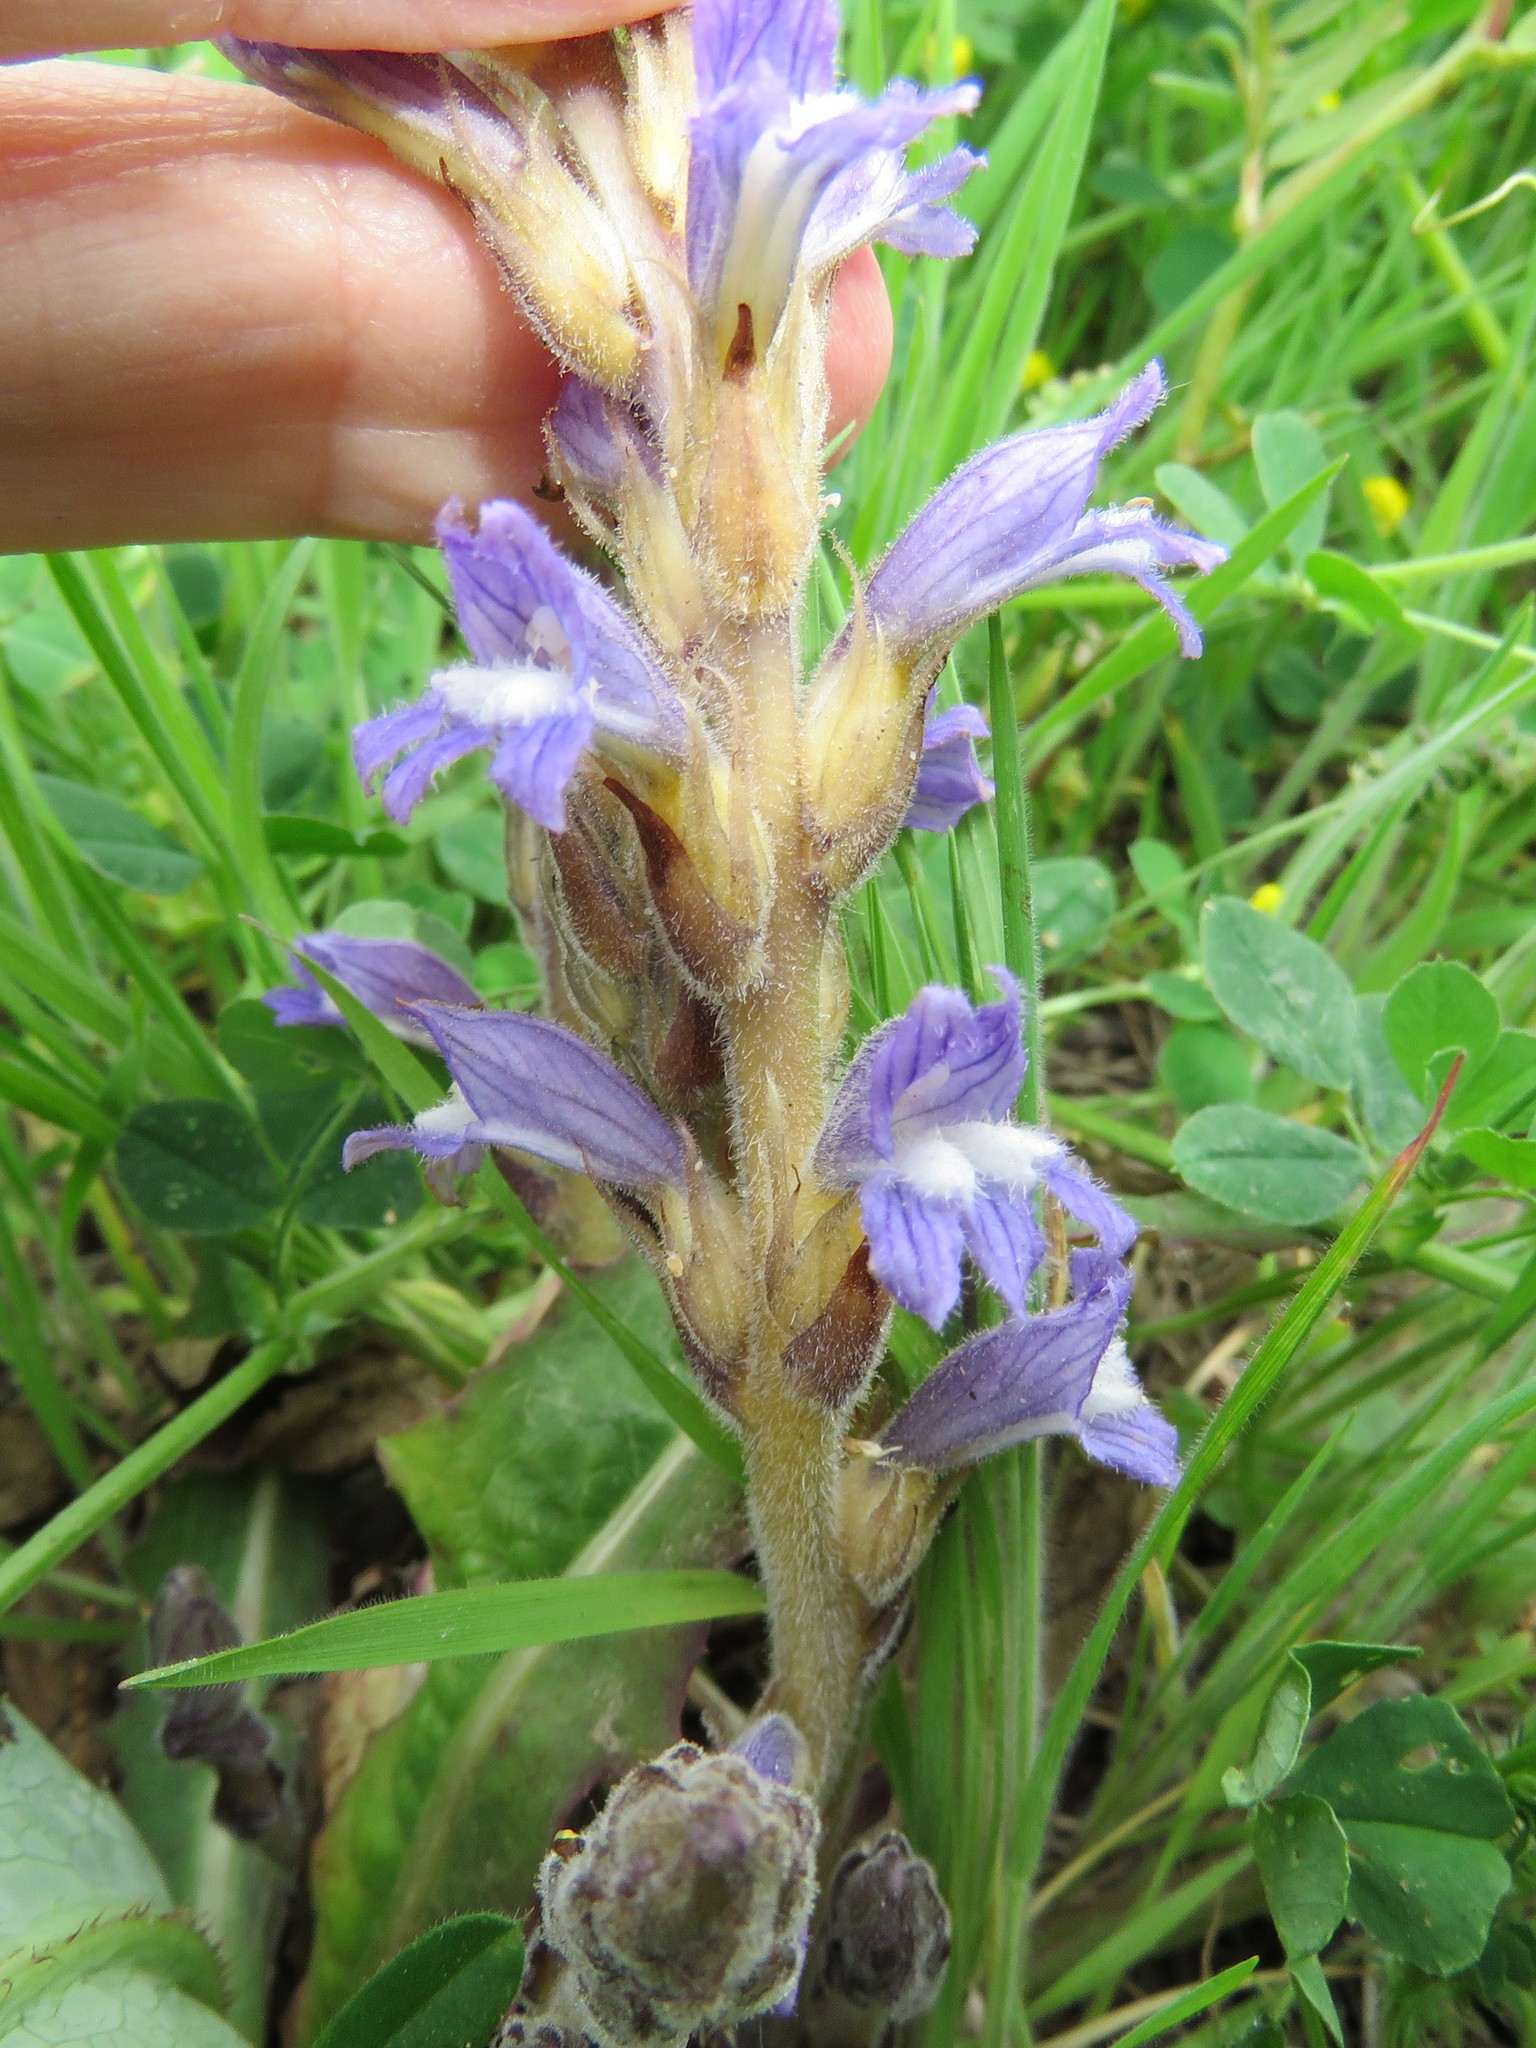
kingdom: Plantae
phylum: Tracheophyta
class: Magnoliopsida
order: Lamiales
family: Orobanchaceae
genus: Phelipanche
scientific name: Phelipanche ramosa
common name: Branched broomrape
